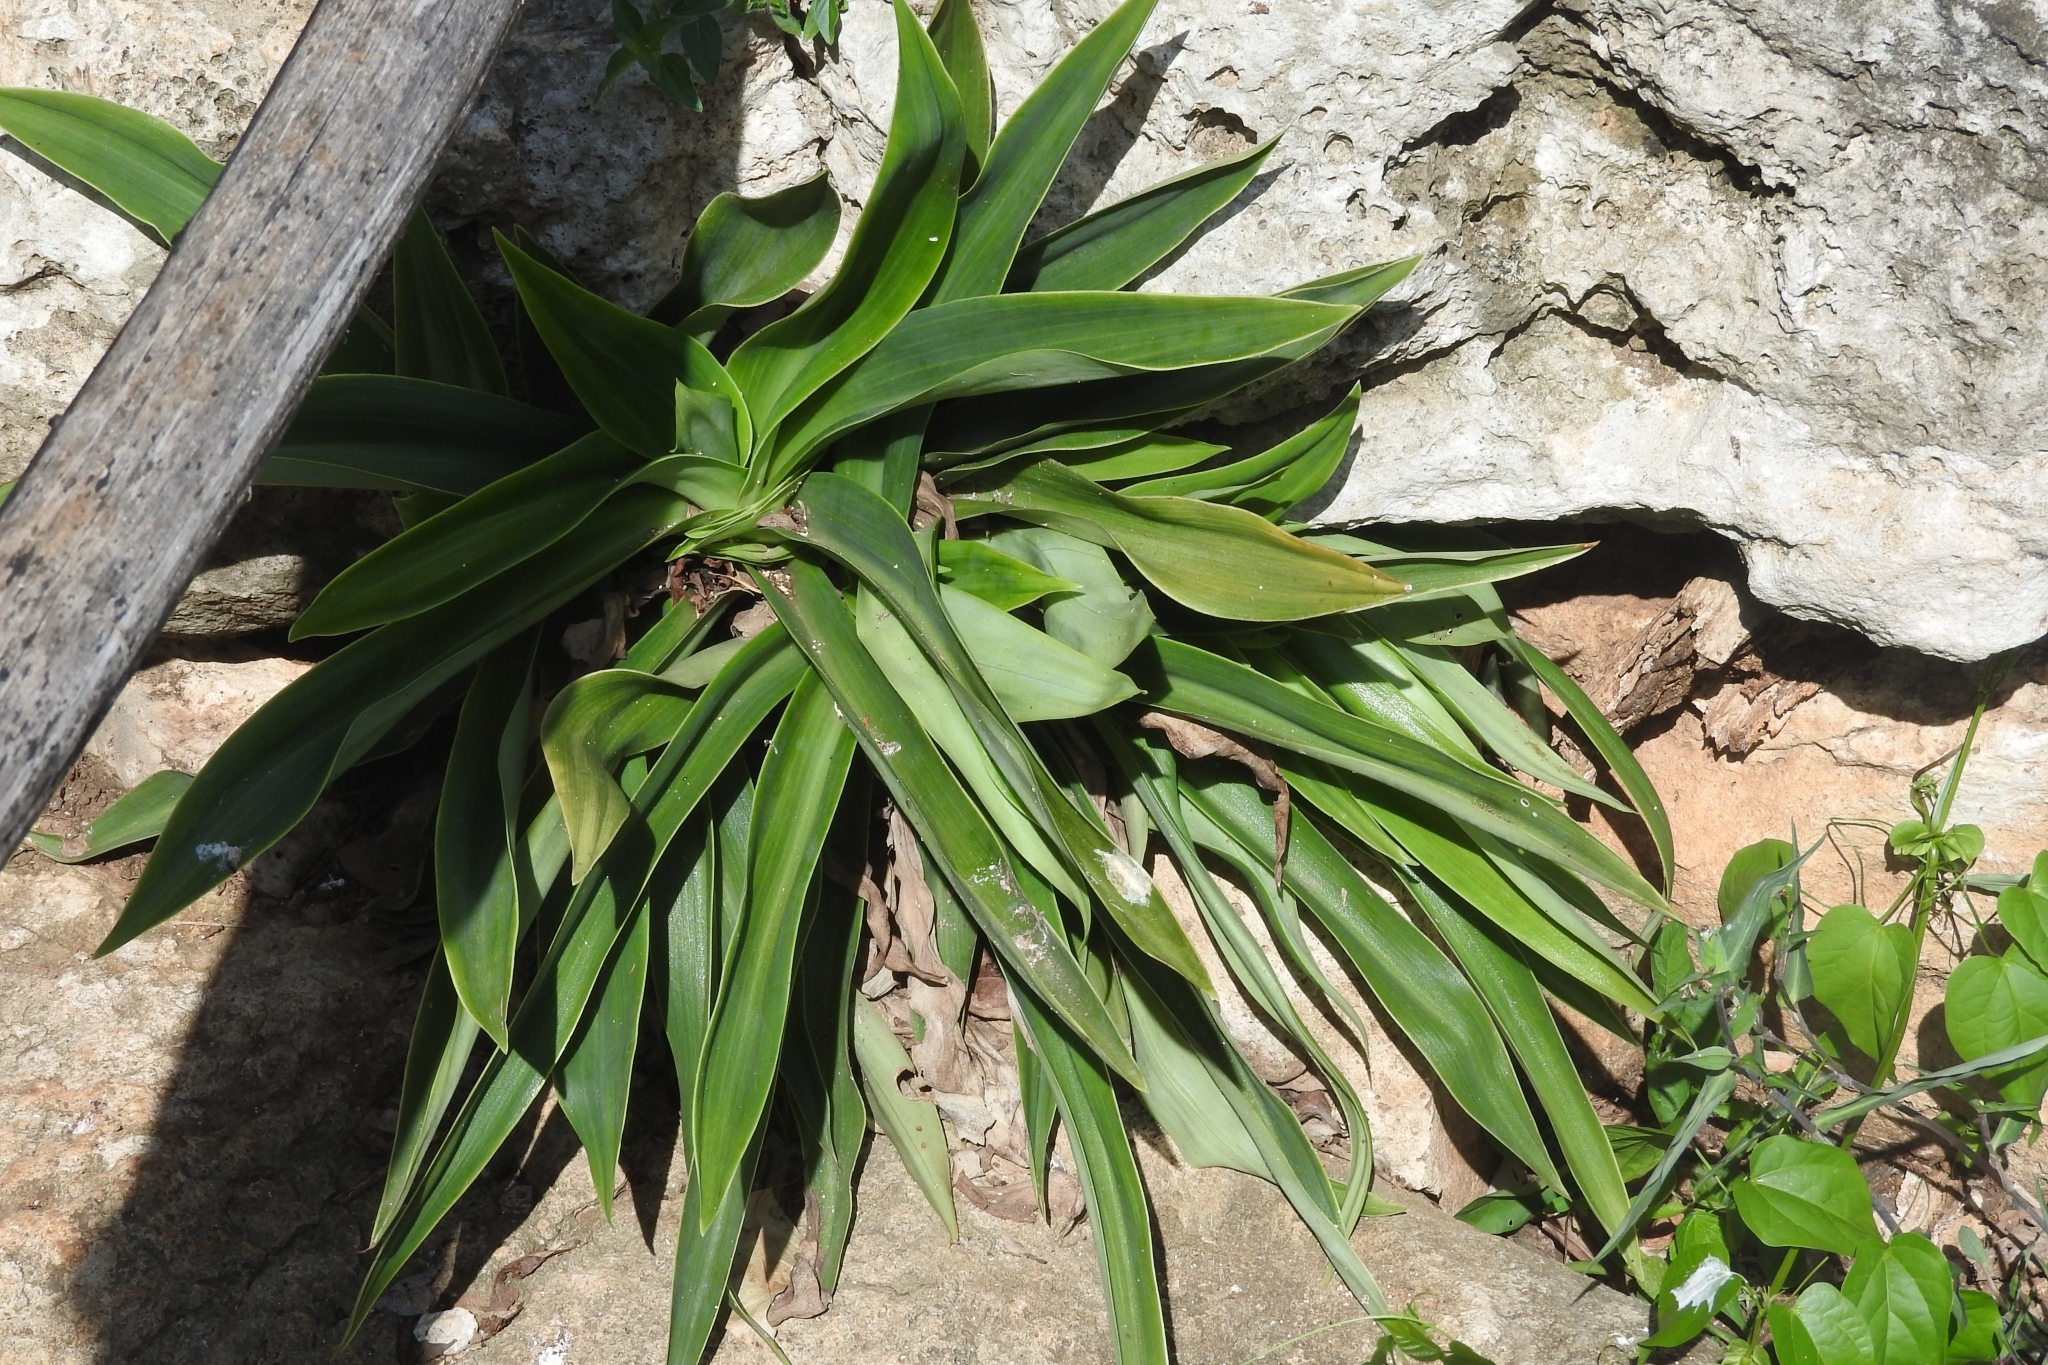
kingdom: Plantae
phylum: Tracheophyta
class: Liliopsida
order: Commelinales
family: Commelinaceae
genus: Callisia
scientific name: Callisia fragrans
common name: Basketplant
